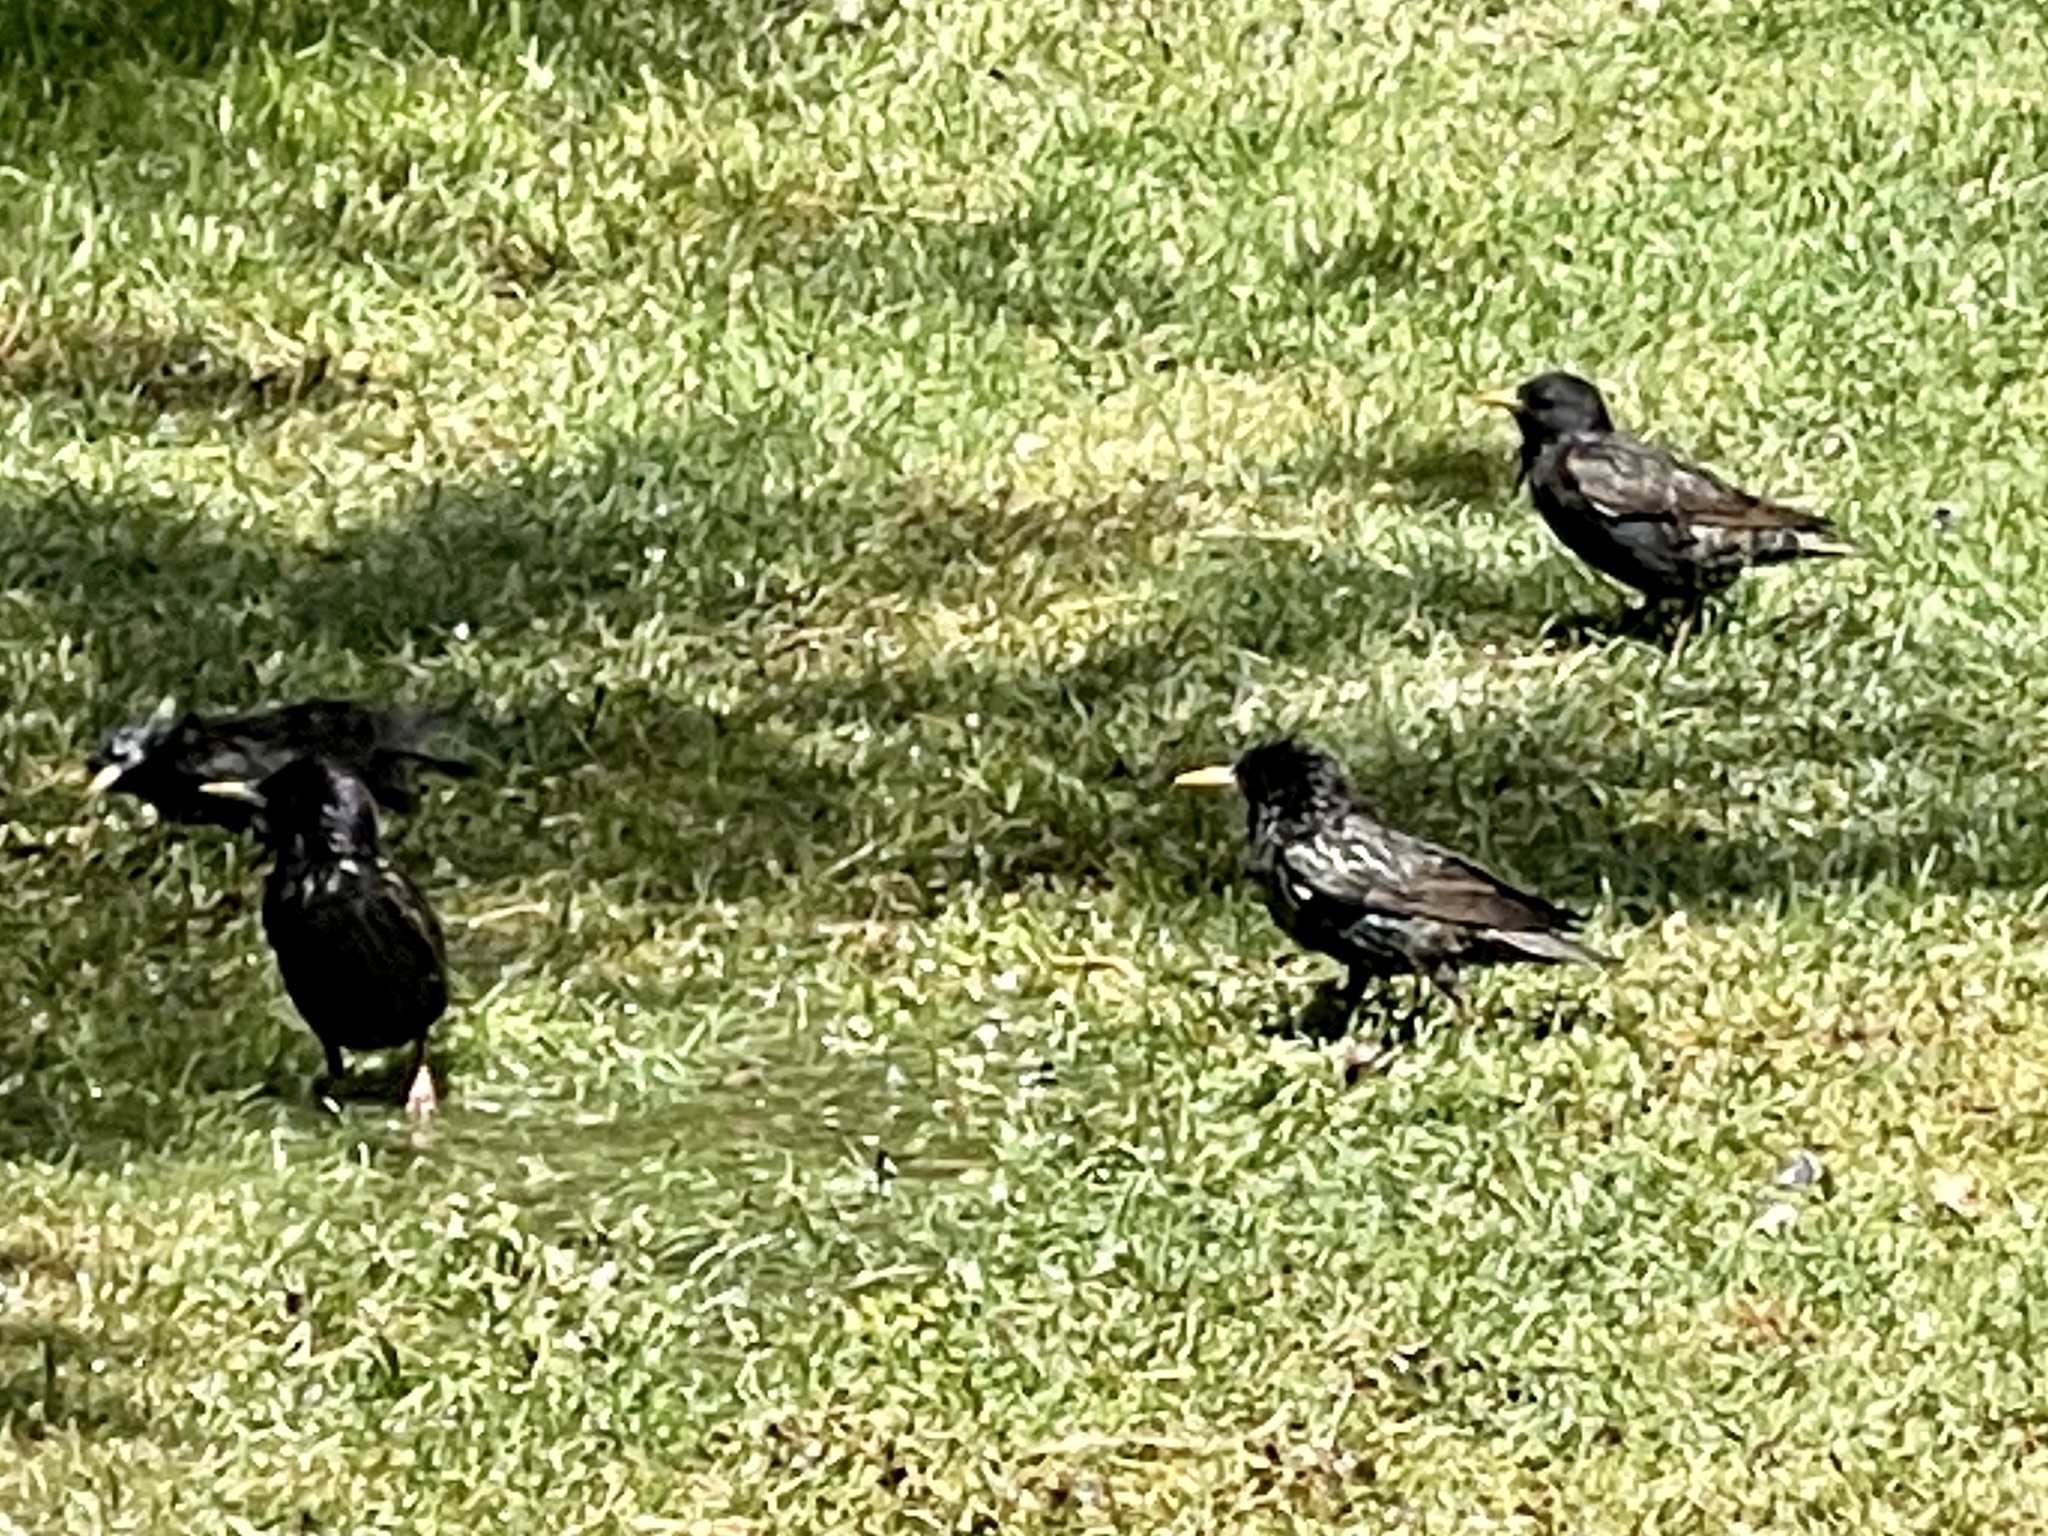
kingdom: Animalia
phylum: Chordata
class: Aves
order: Passeriformes
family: Sturnidae
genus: Sturnus
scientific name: Sturnus vulgaris
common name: Common starling
